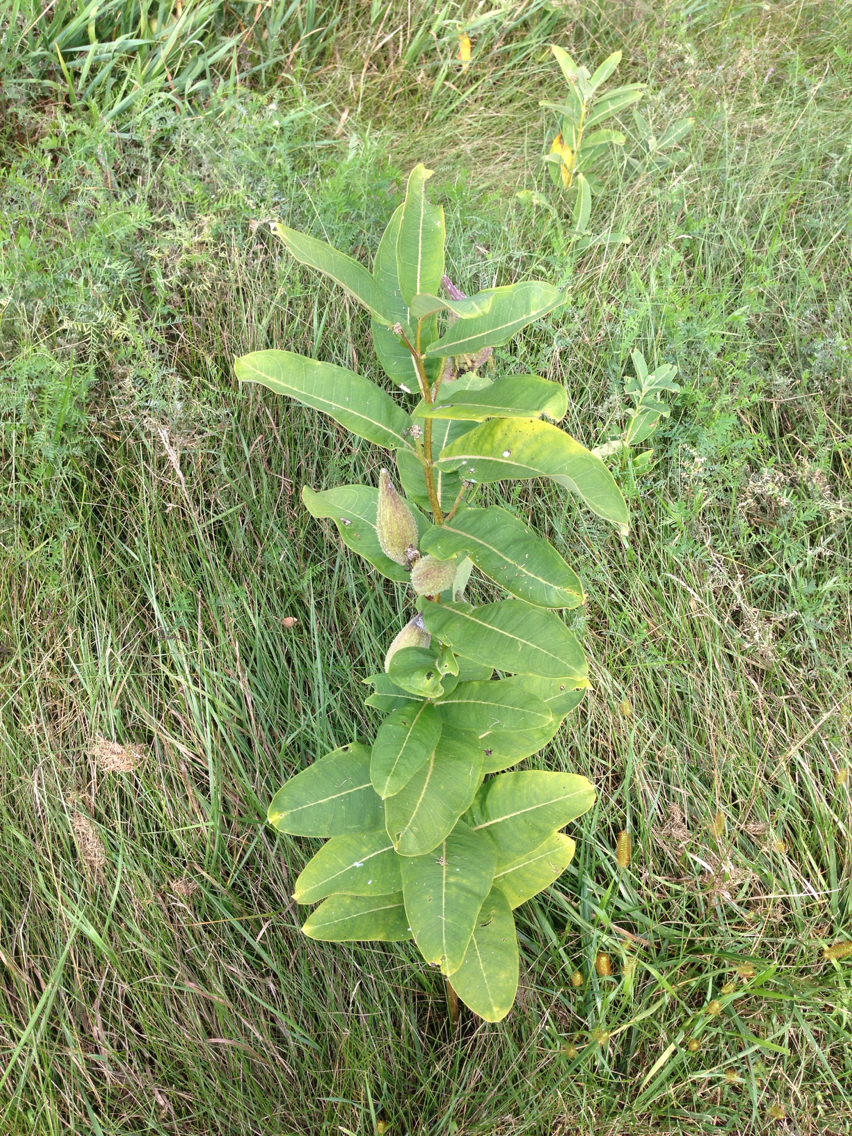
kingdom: Plantae
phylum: Tracheophyta
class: Magnoliopsida
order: Gentianales
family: Apocynaceae
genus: Asclepias
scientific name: Asclepias syriaca
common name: Common milkweed
